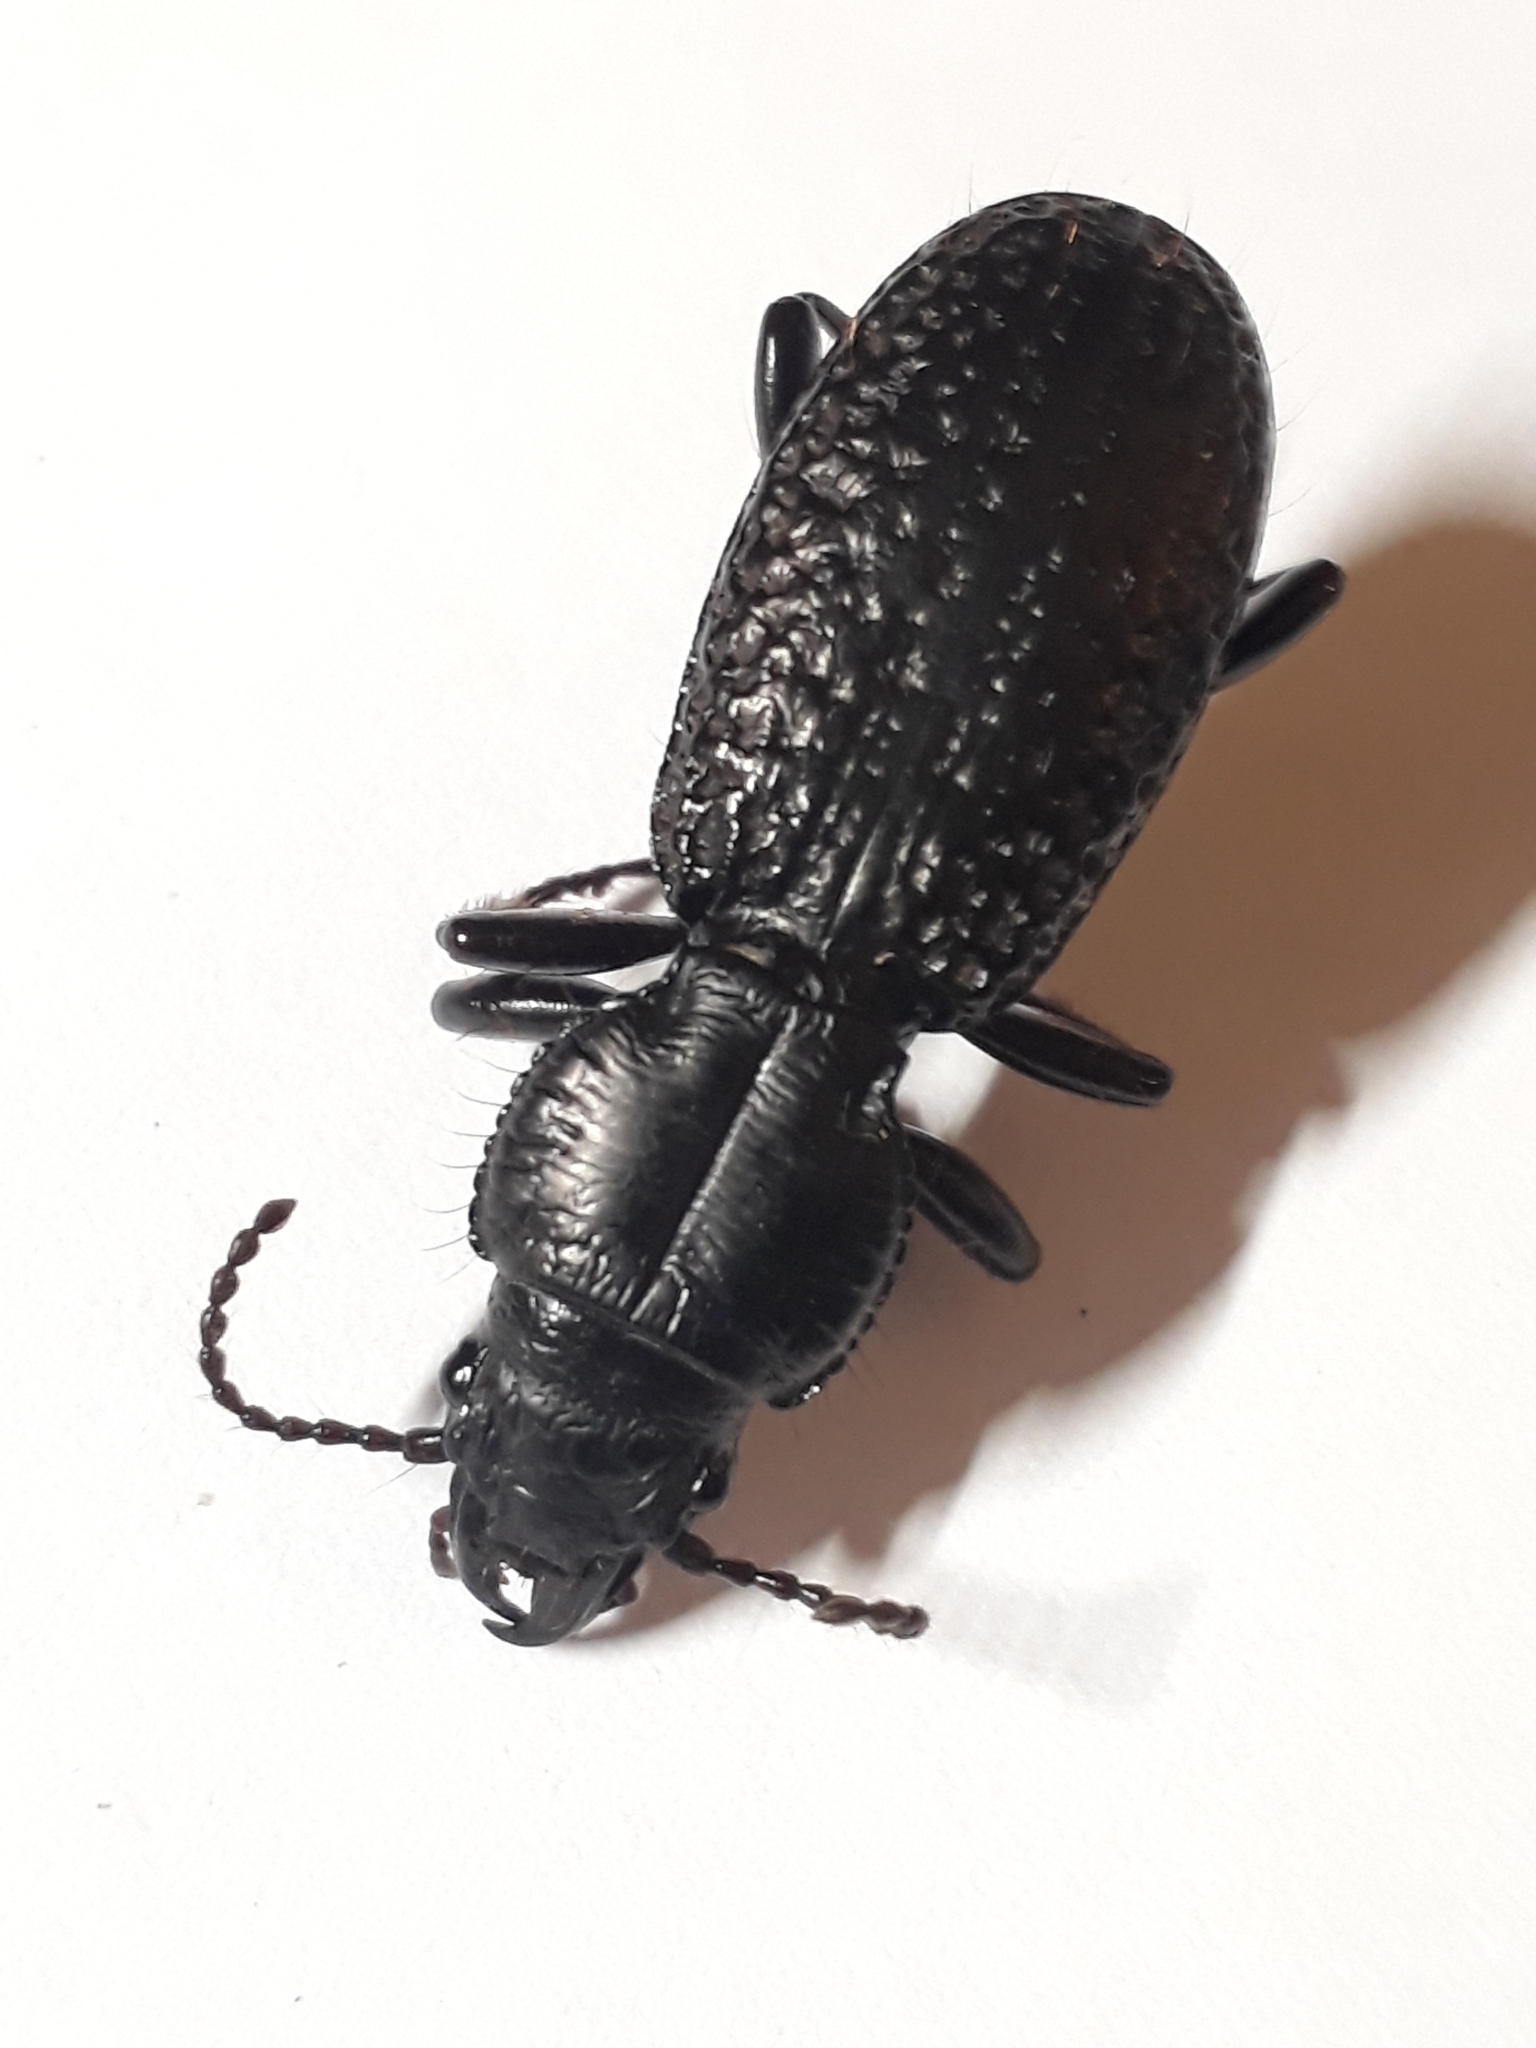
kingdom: Animalia
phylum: Arthropoda
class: Insecta
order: Coleoptera
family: Carabidae
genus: Mecodema
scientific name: Mecodema crenicolle
